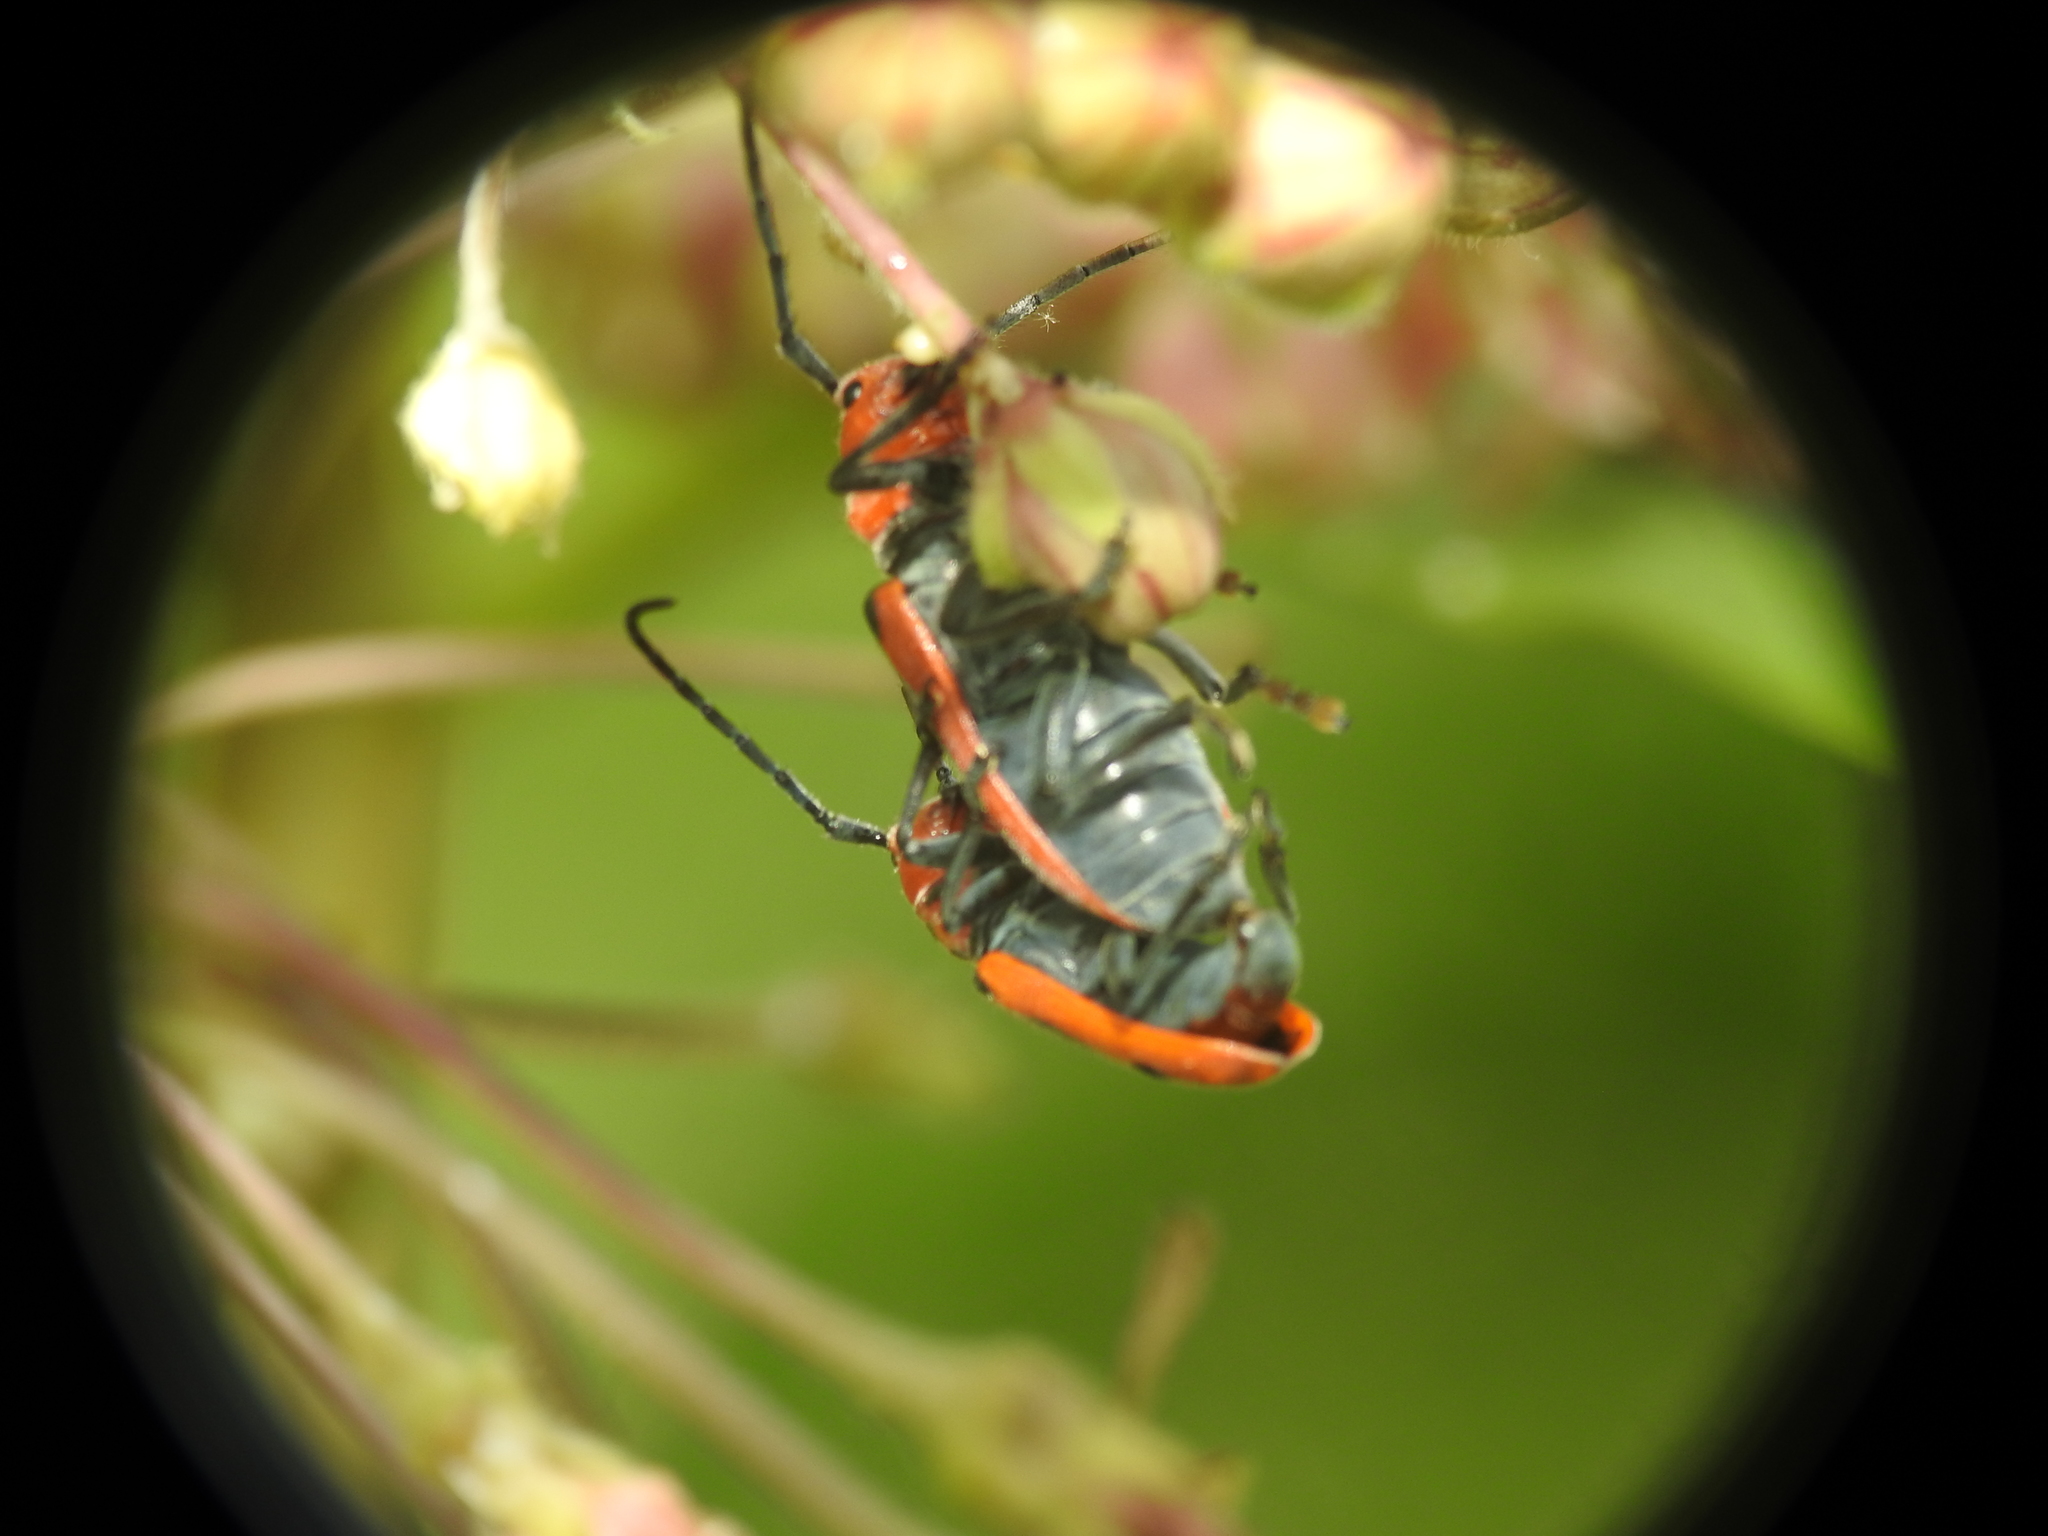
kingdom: Animalia
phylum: Arthropoda
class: Insecta
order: Coleoptera
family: Cerambycidae
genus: Tetraopes
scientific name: Tetraopes tetrophthalmus
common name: Red milkweed beetle
